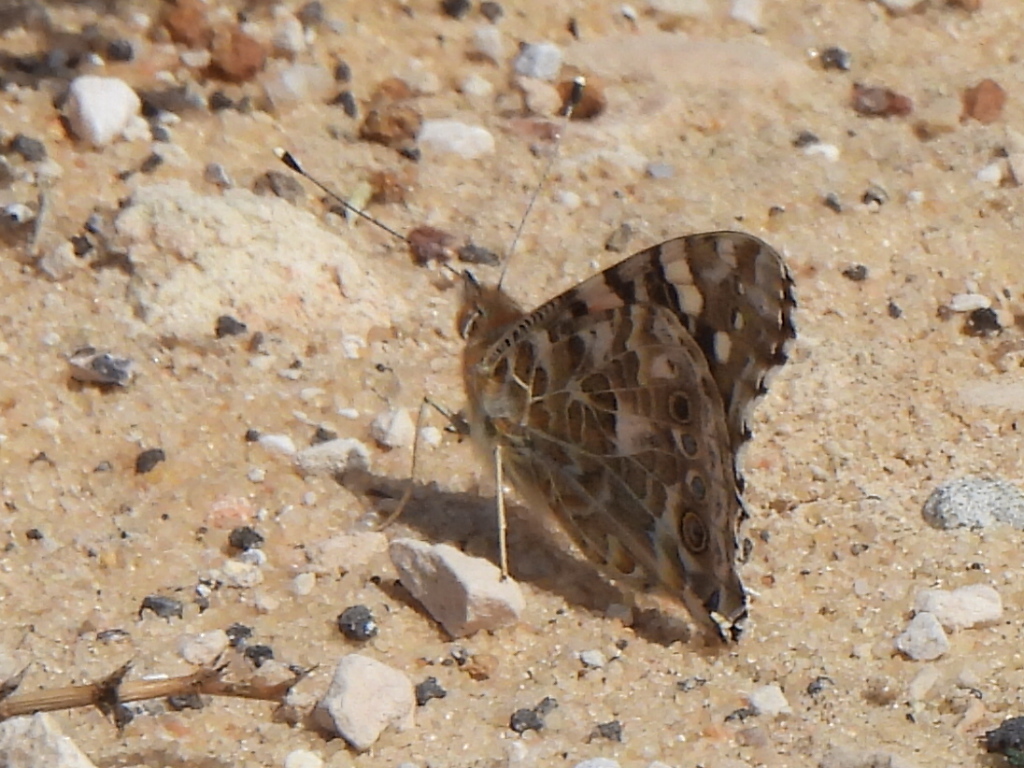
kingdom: Animalia
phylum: Arthropoda
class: Insecta
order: Lepidoptera
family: Nymphalidae
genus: Vanessa
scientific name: Vanessa cardui
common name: Painted lady
